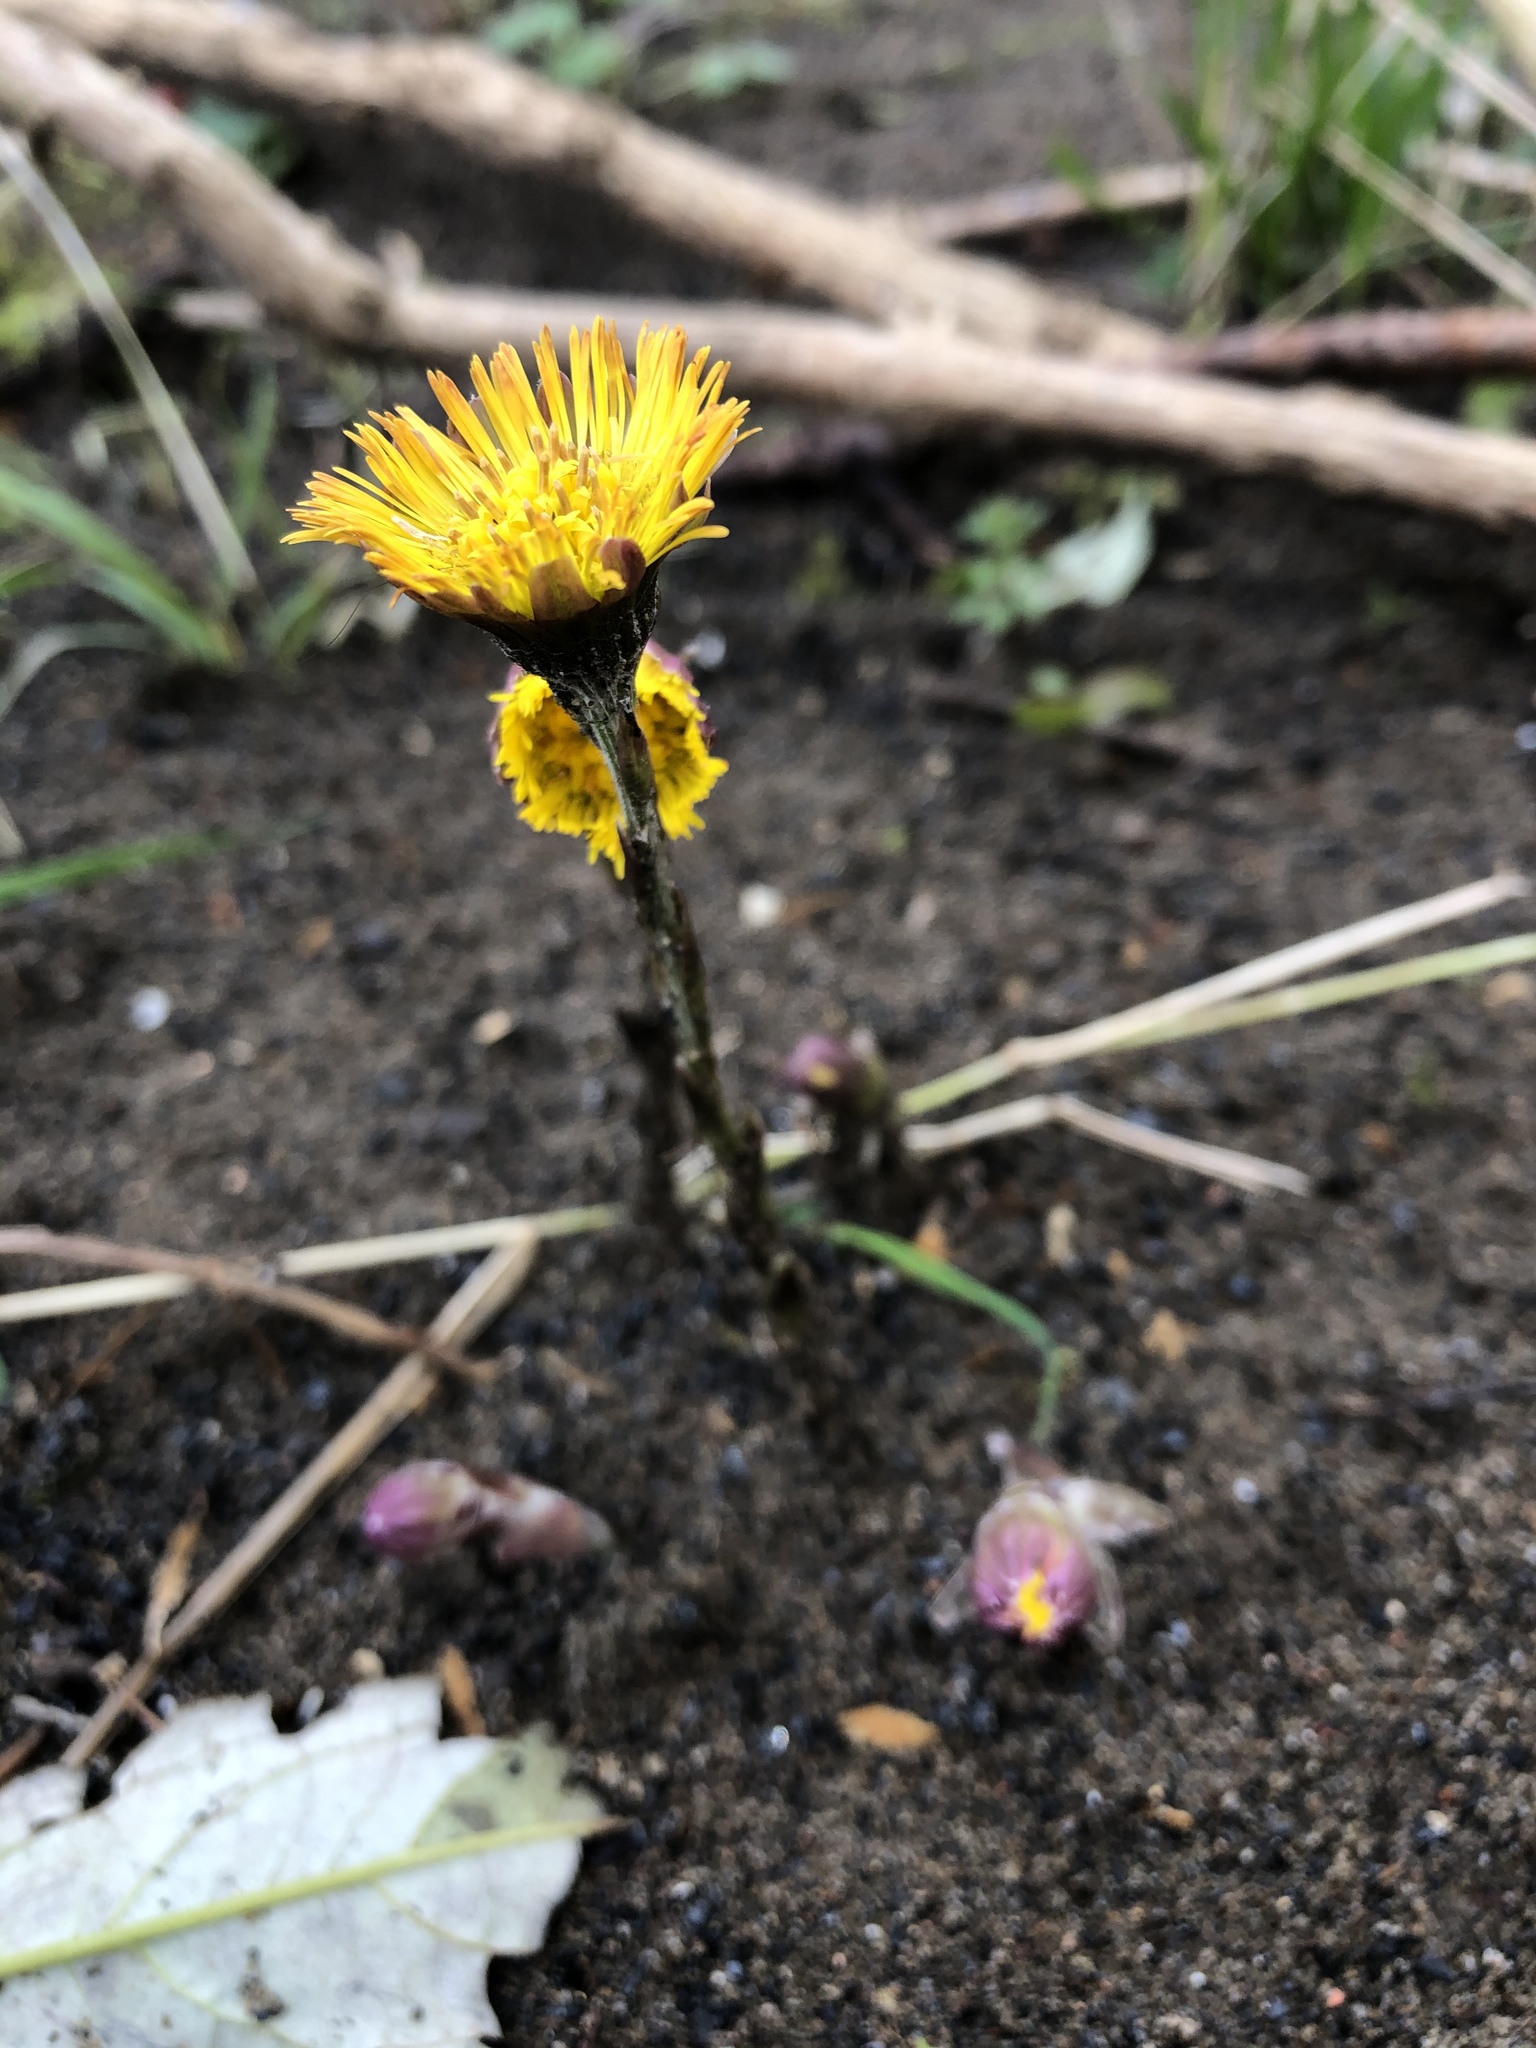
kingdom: Plantae
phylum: Tracheophyta
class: Magnoliopsida
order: Asterales
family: Asteraceae
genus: Tussilago
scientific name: Tussilago farfara
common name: Coltsfoot
